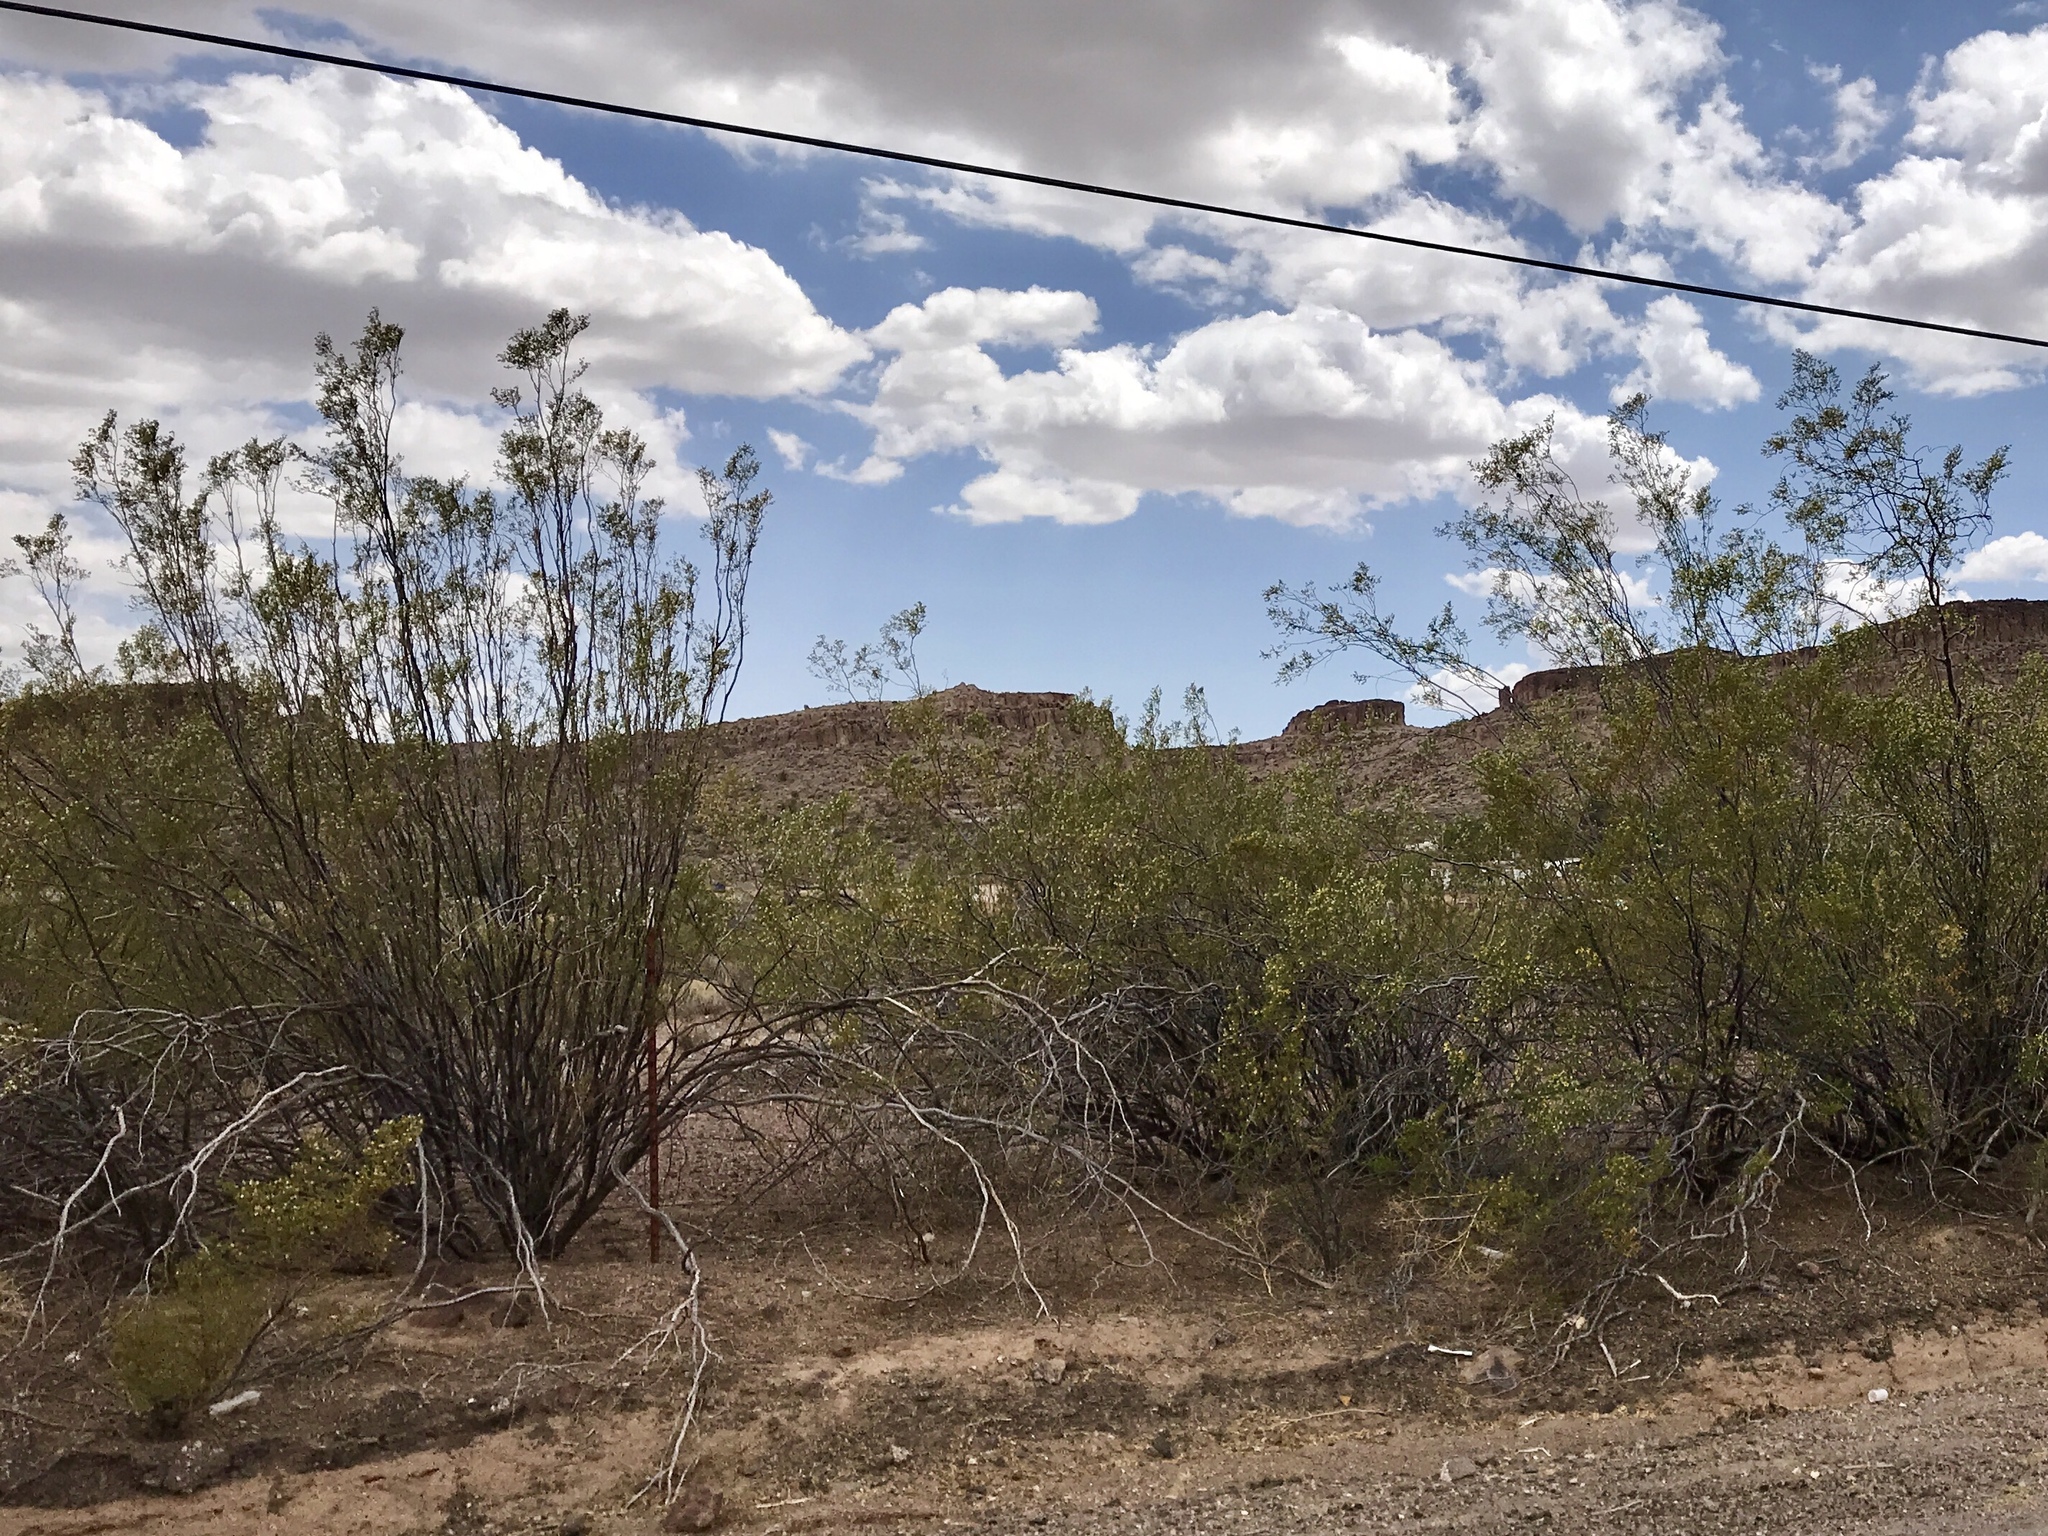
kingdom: Plantae
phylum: Tracheophyta
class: Magnoliopsida
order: Zygophyllales
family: Zygophyllaceae
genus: Larrea
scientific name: Larrea tridentata
